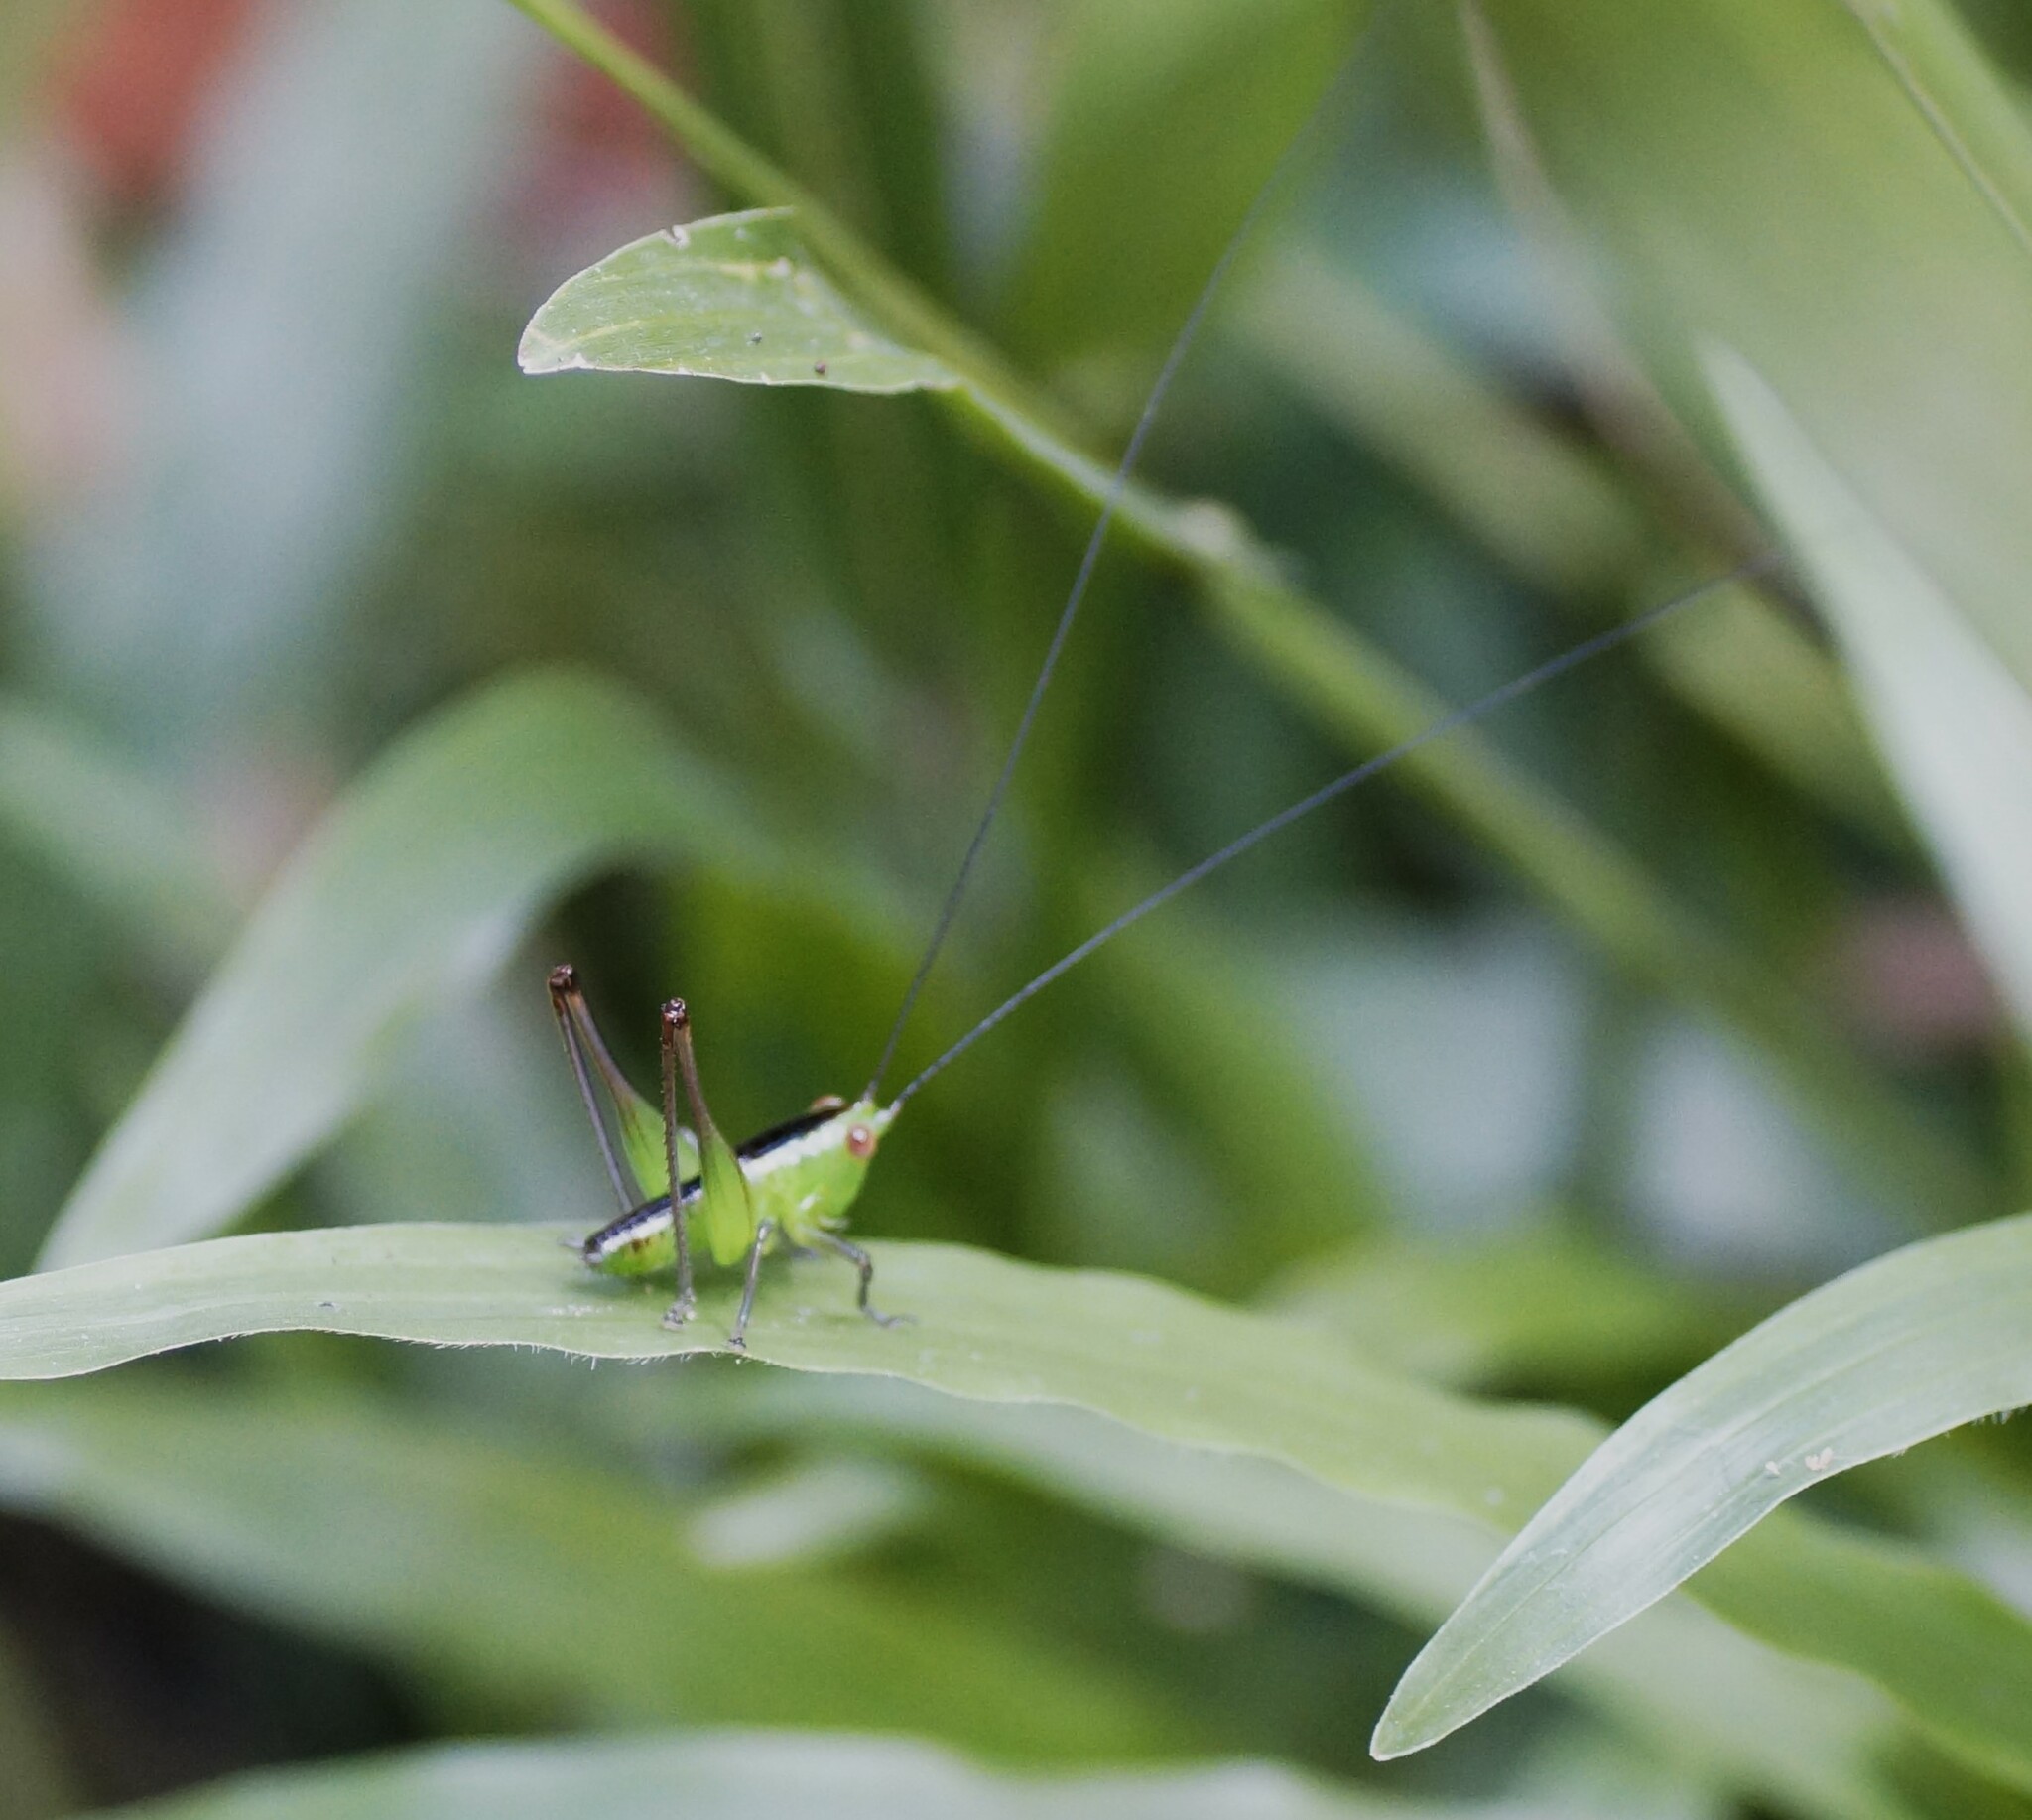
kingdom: Animalia
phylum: Arthropoda
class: Insecta
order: Orthoptera
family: Tettigoniidae
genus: Conocephalus
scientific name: Conocephalus semivittatus
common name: Blackish meadow katydid
